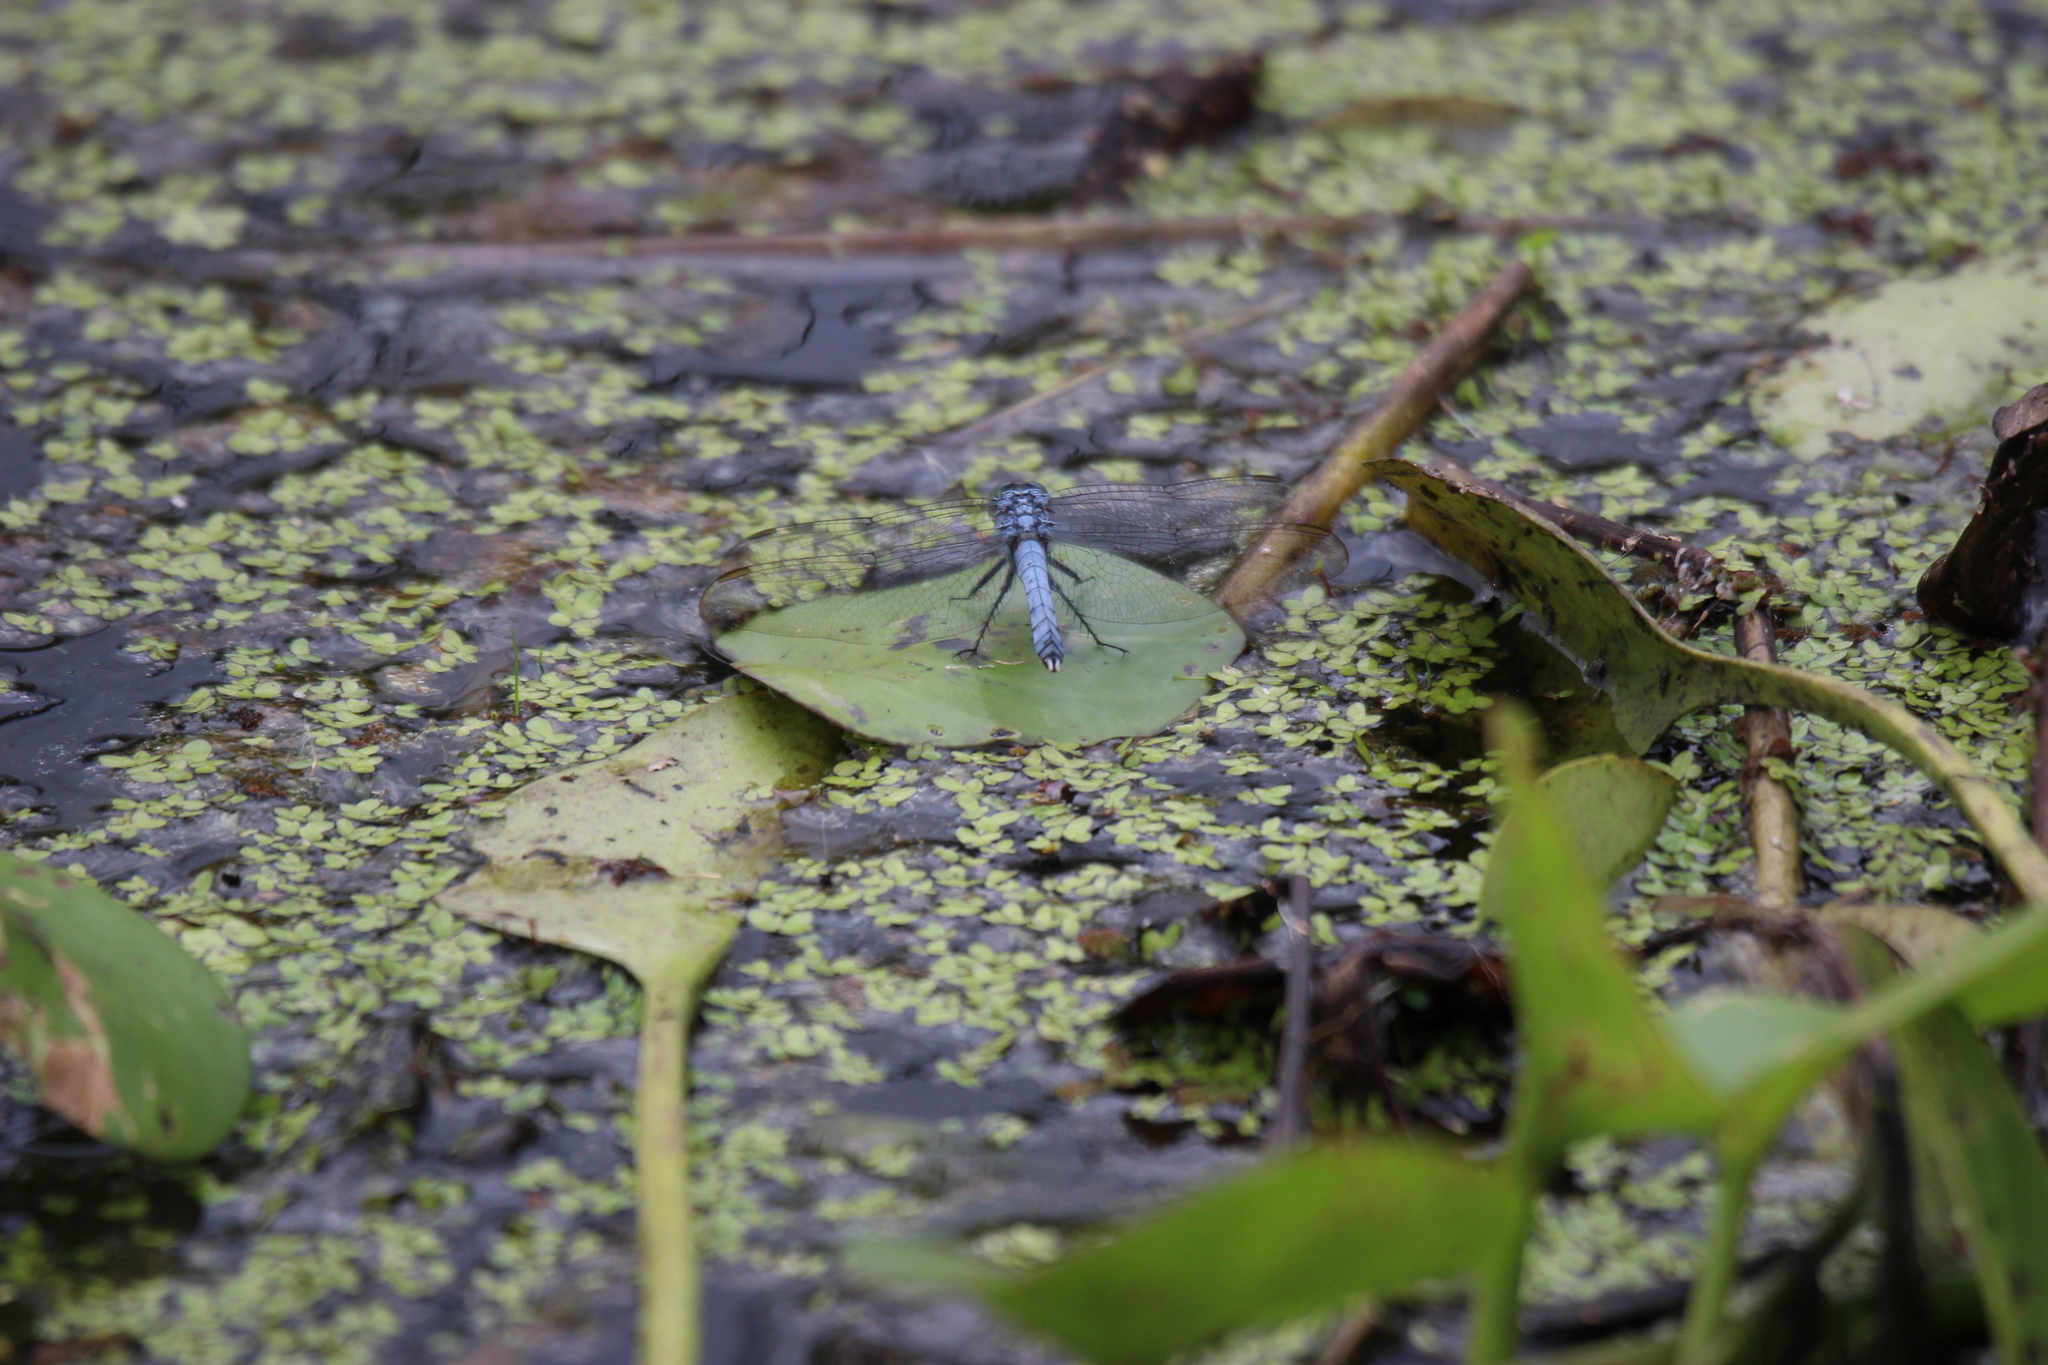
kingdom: Animalia
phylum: Arthropoda
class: Insecta
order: Odonata
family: Libellulidae
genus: Erythemis
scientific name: Erythemis simplicicollis
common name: Eastern pondhawk
